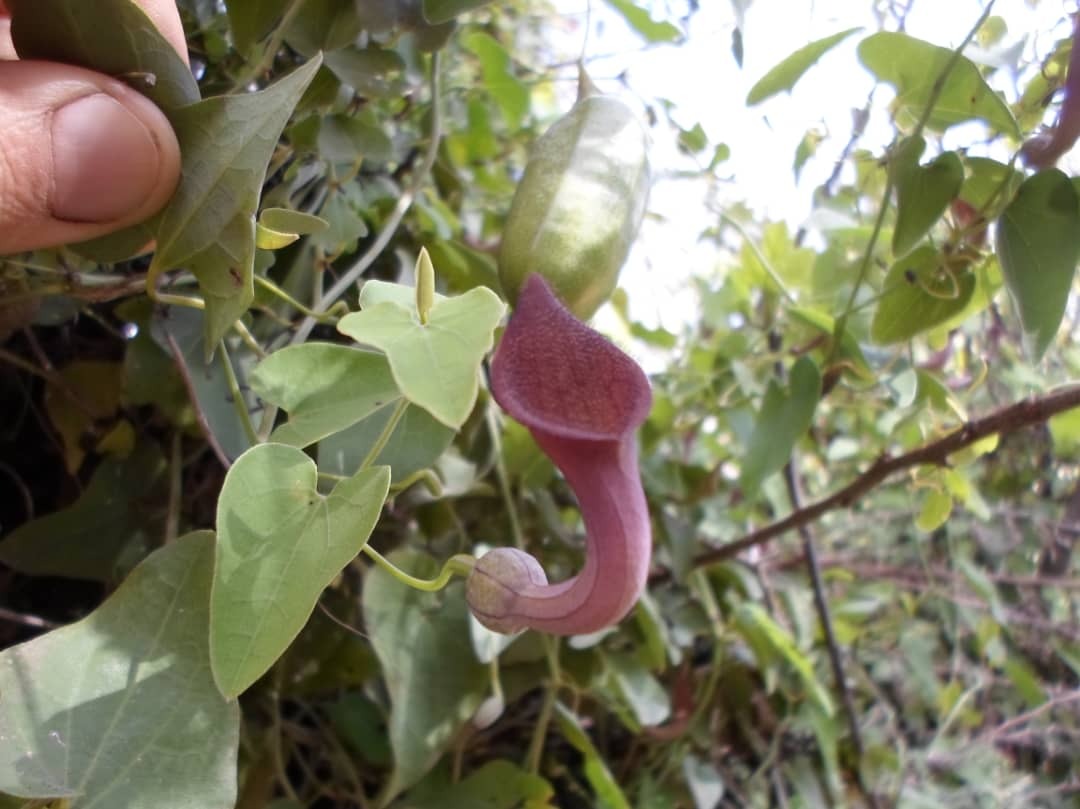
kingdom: Plantae
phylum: Tracheophyta
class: Magnoliopsida
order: Piperales
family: Aristolochiaceae
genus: Aristolochia
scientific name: Aristolochia baetica
